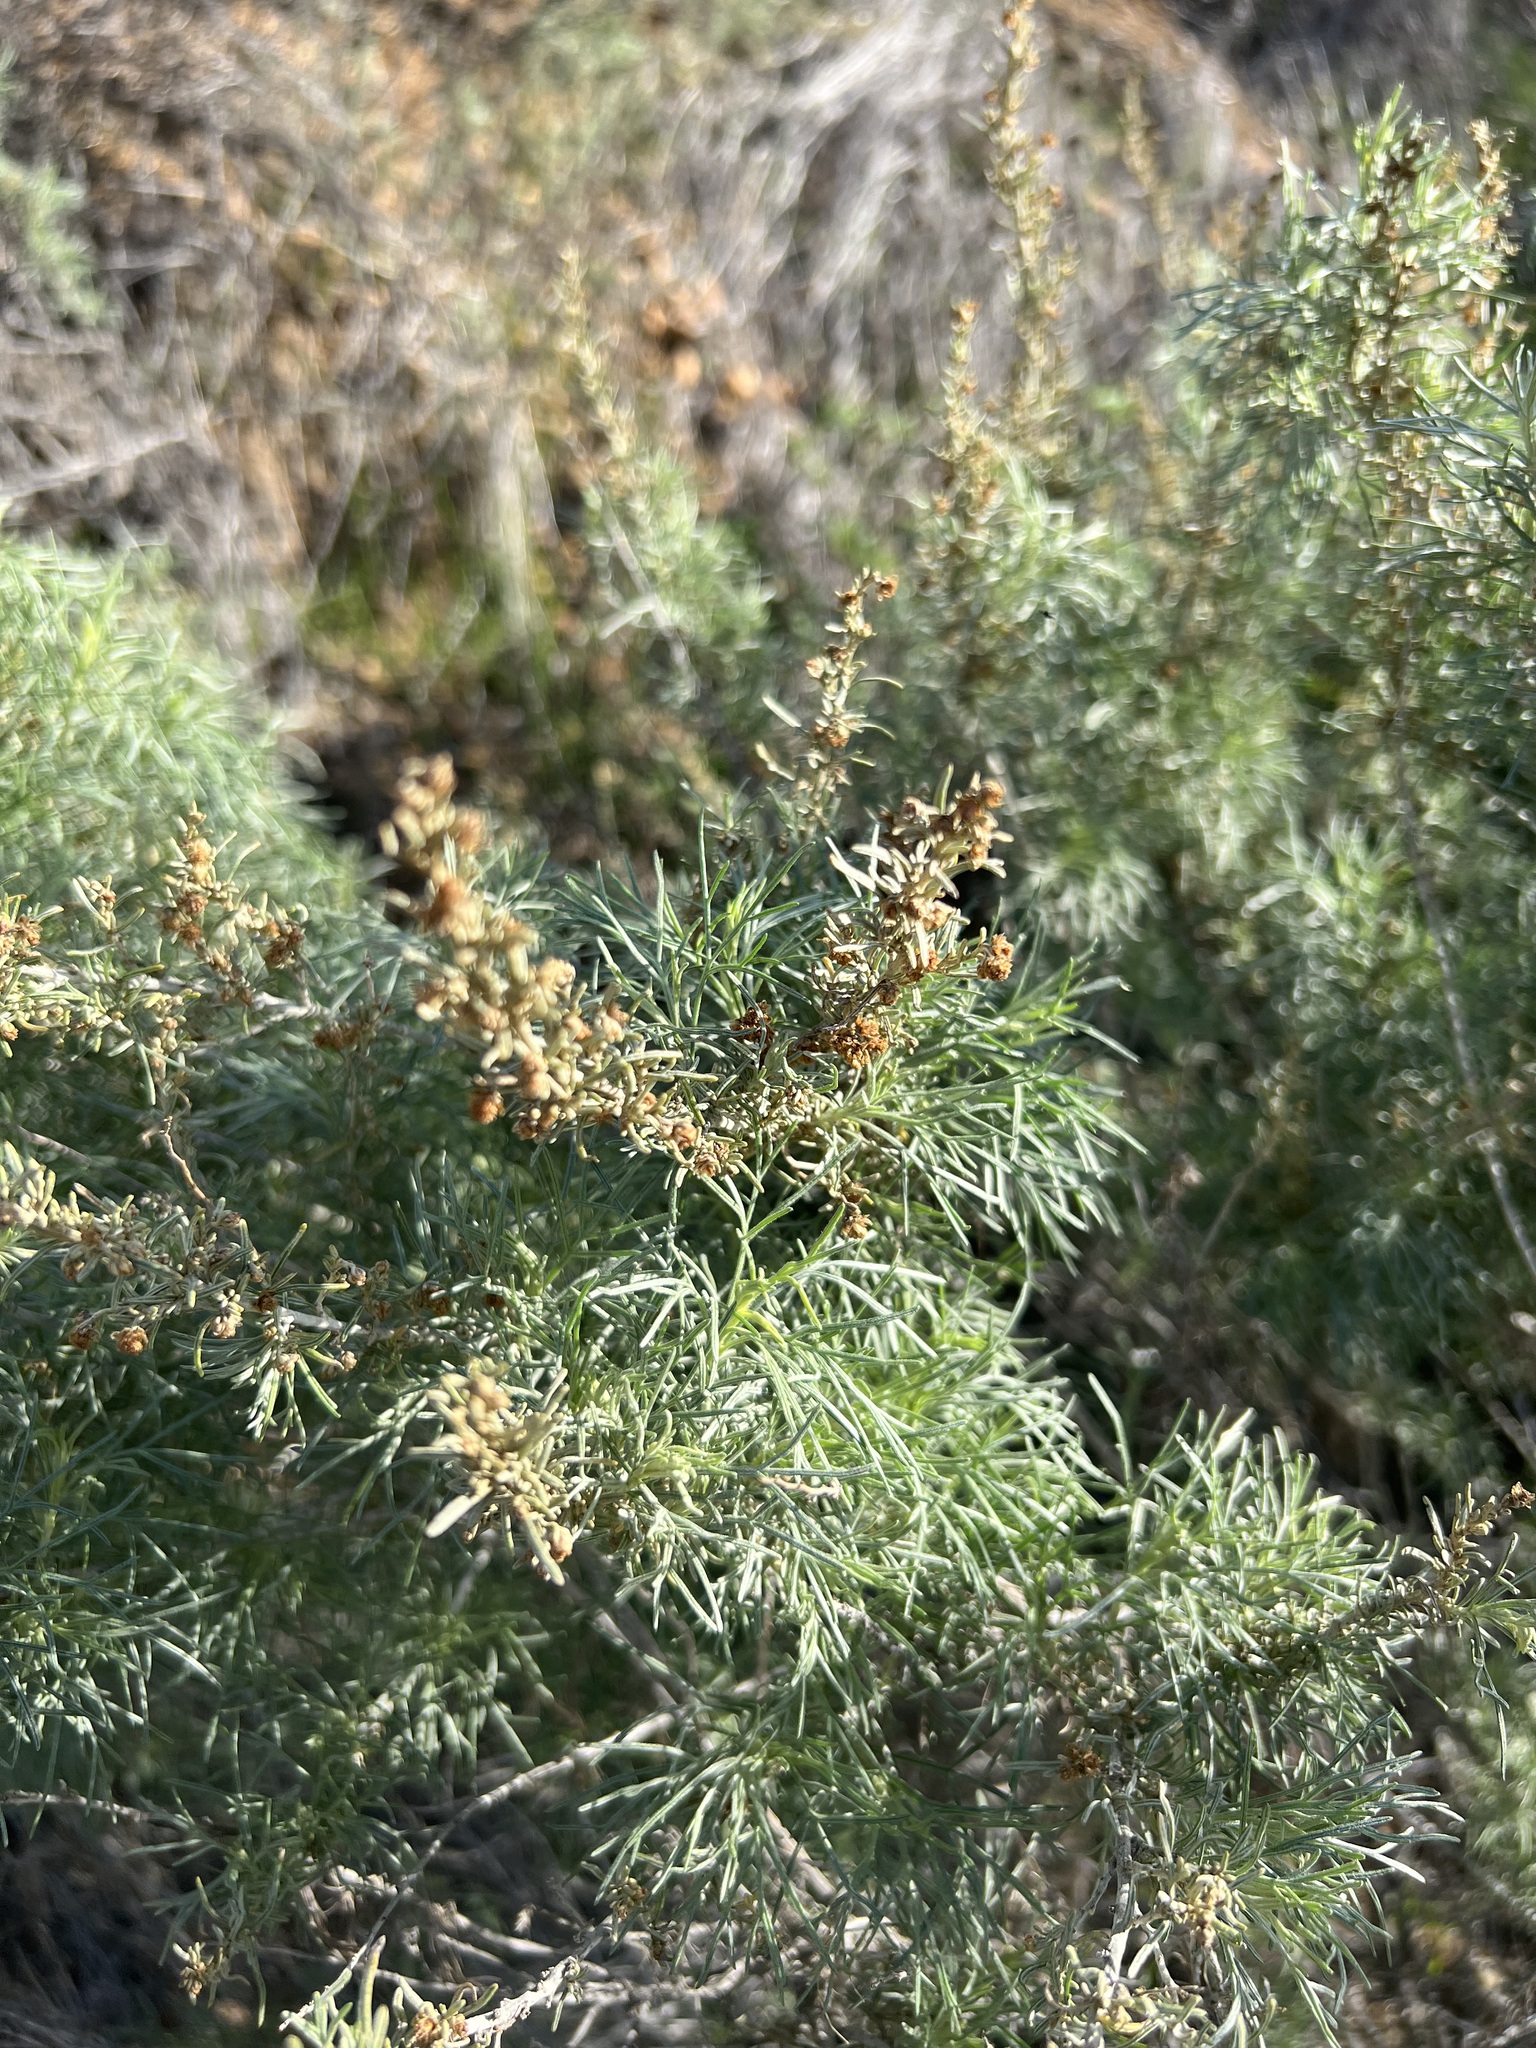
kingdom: Plantae
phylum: Tracheophyta
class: Magnoliopsida
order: Asterales
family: Asteraceae
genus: Artemisia
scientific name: Artemisia californica
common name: California sagebrush
